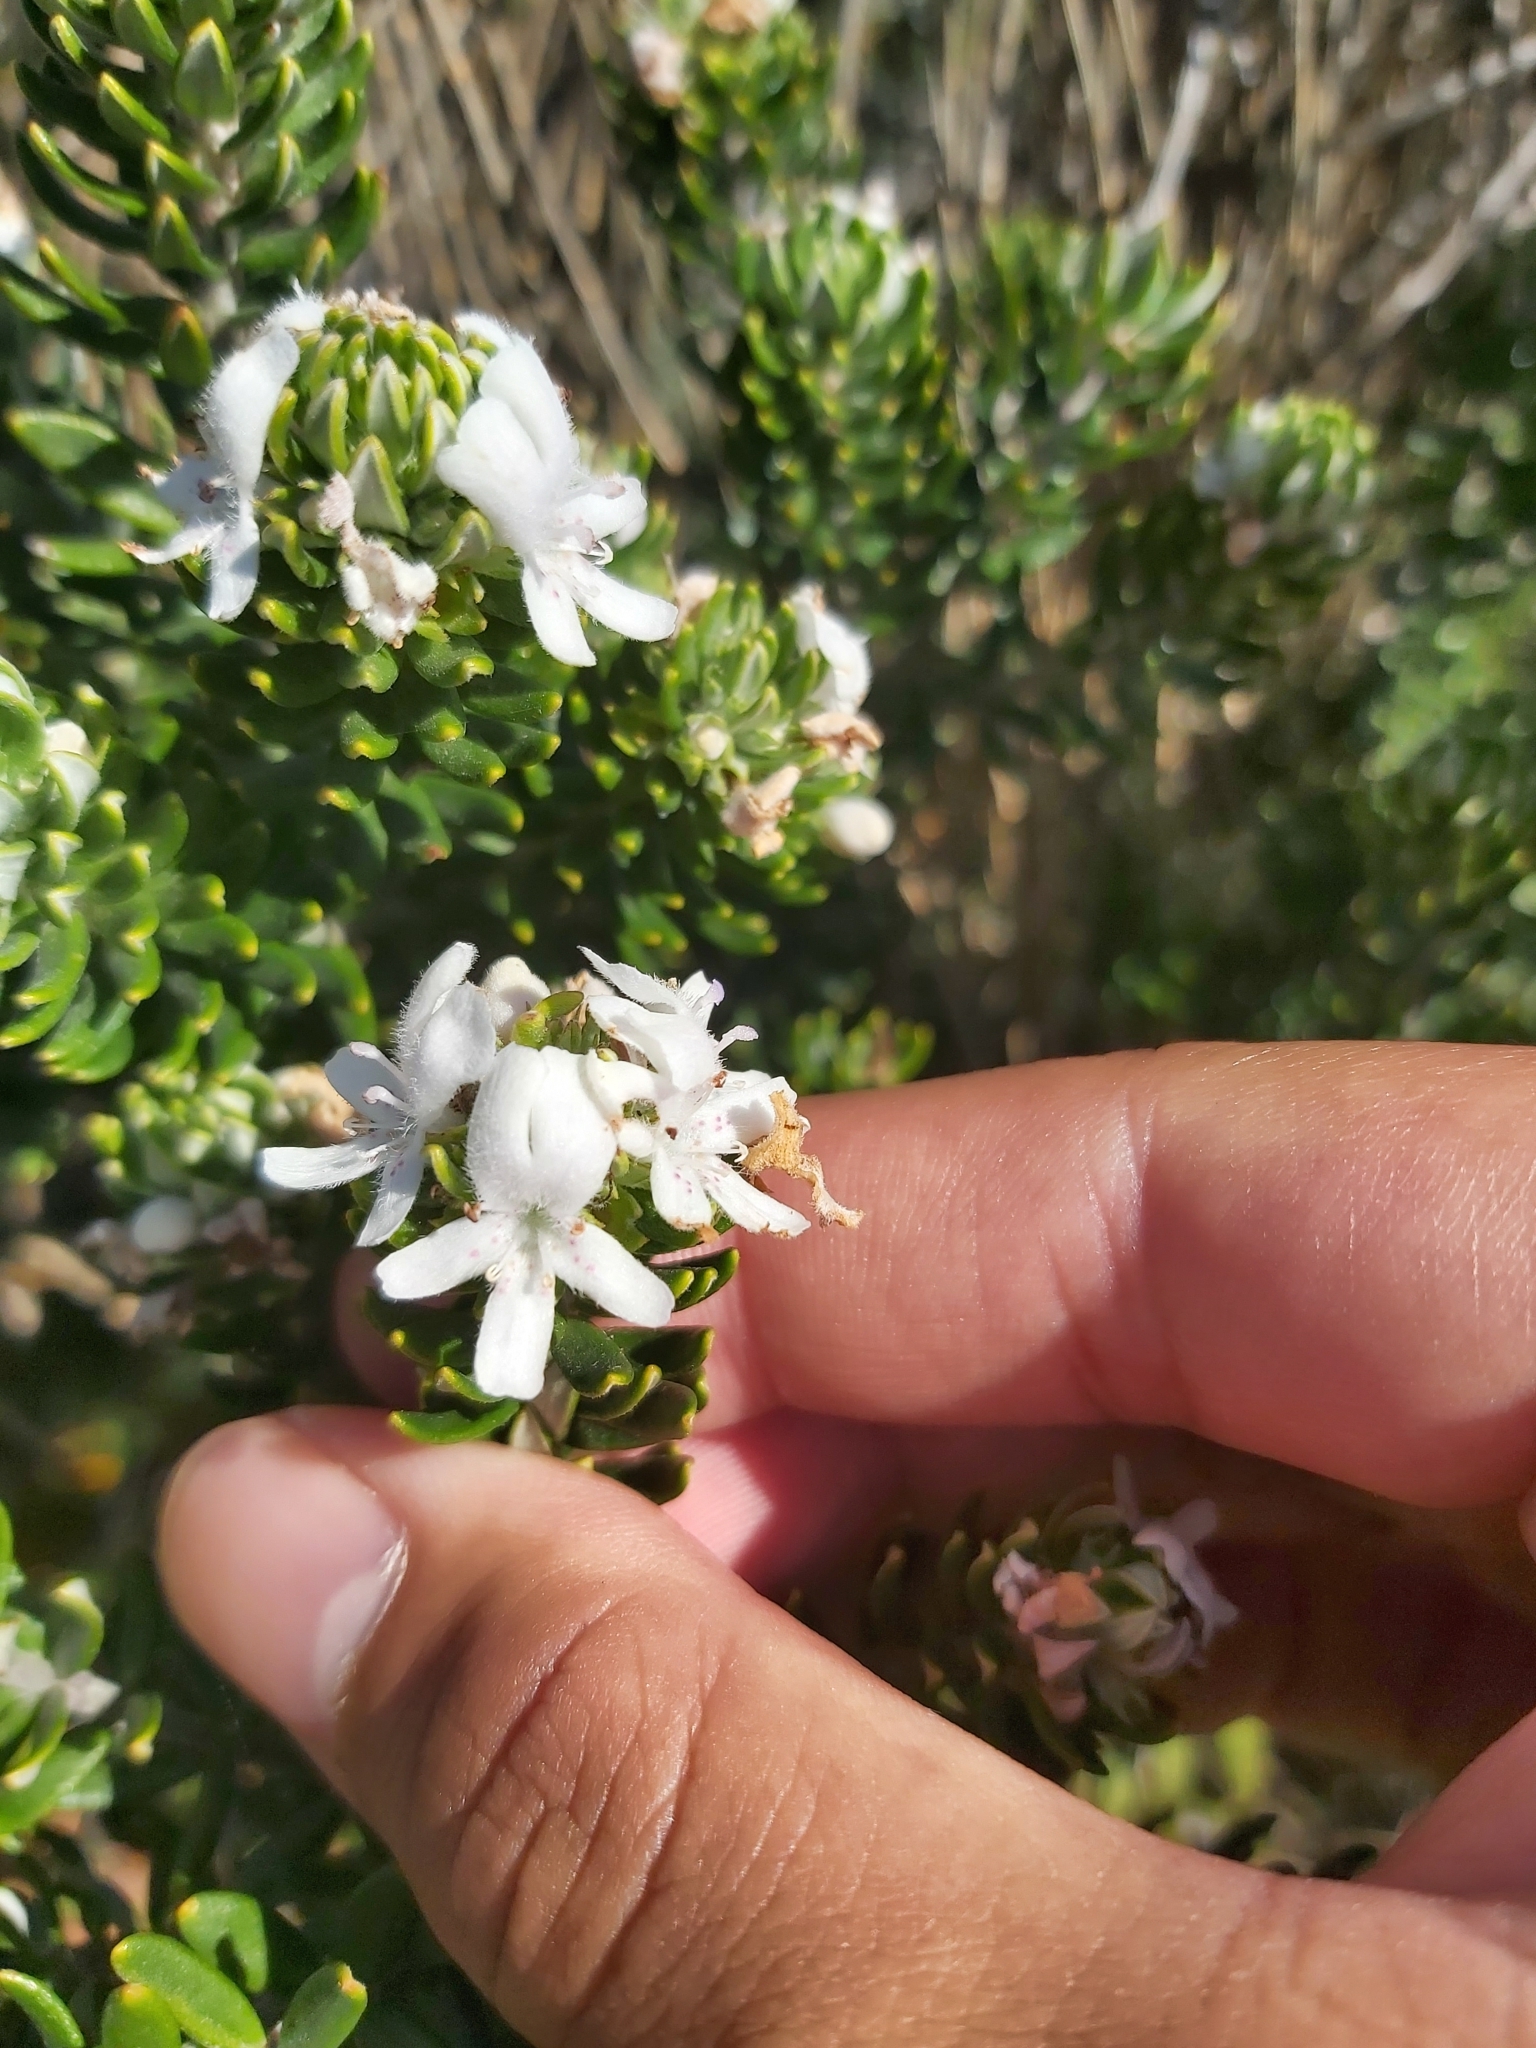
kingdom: Plantae
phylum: Tracheophyta
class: Magnoliopsida
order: Lamiales
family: Lamiaceae
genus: Westringia
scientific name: Westringia fruticosa
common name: Coastal-rosemary
